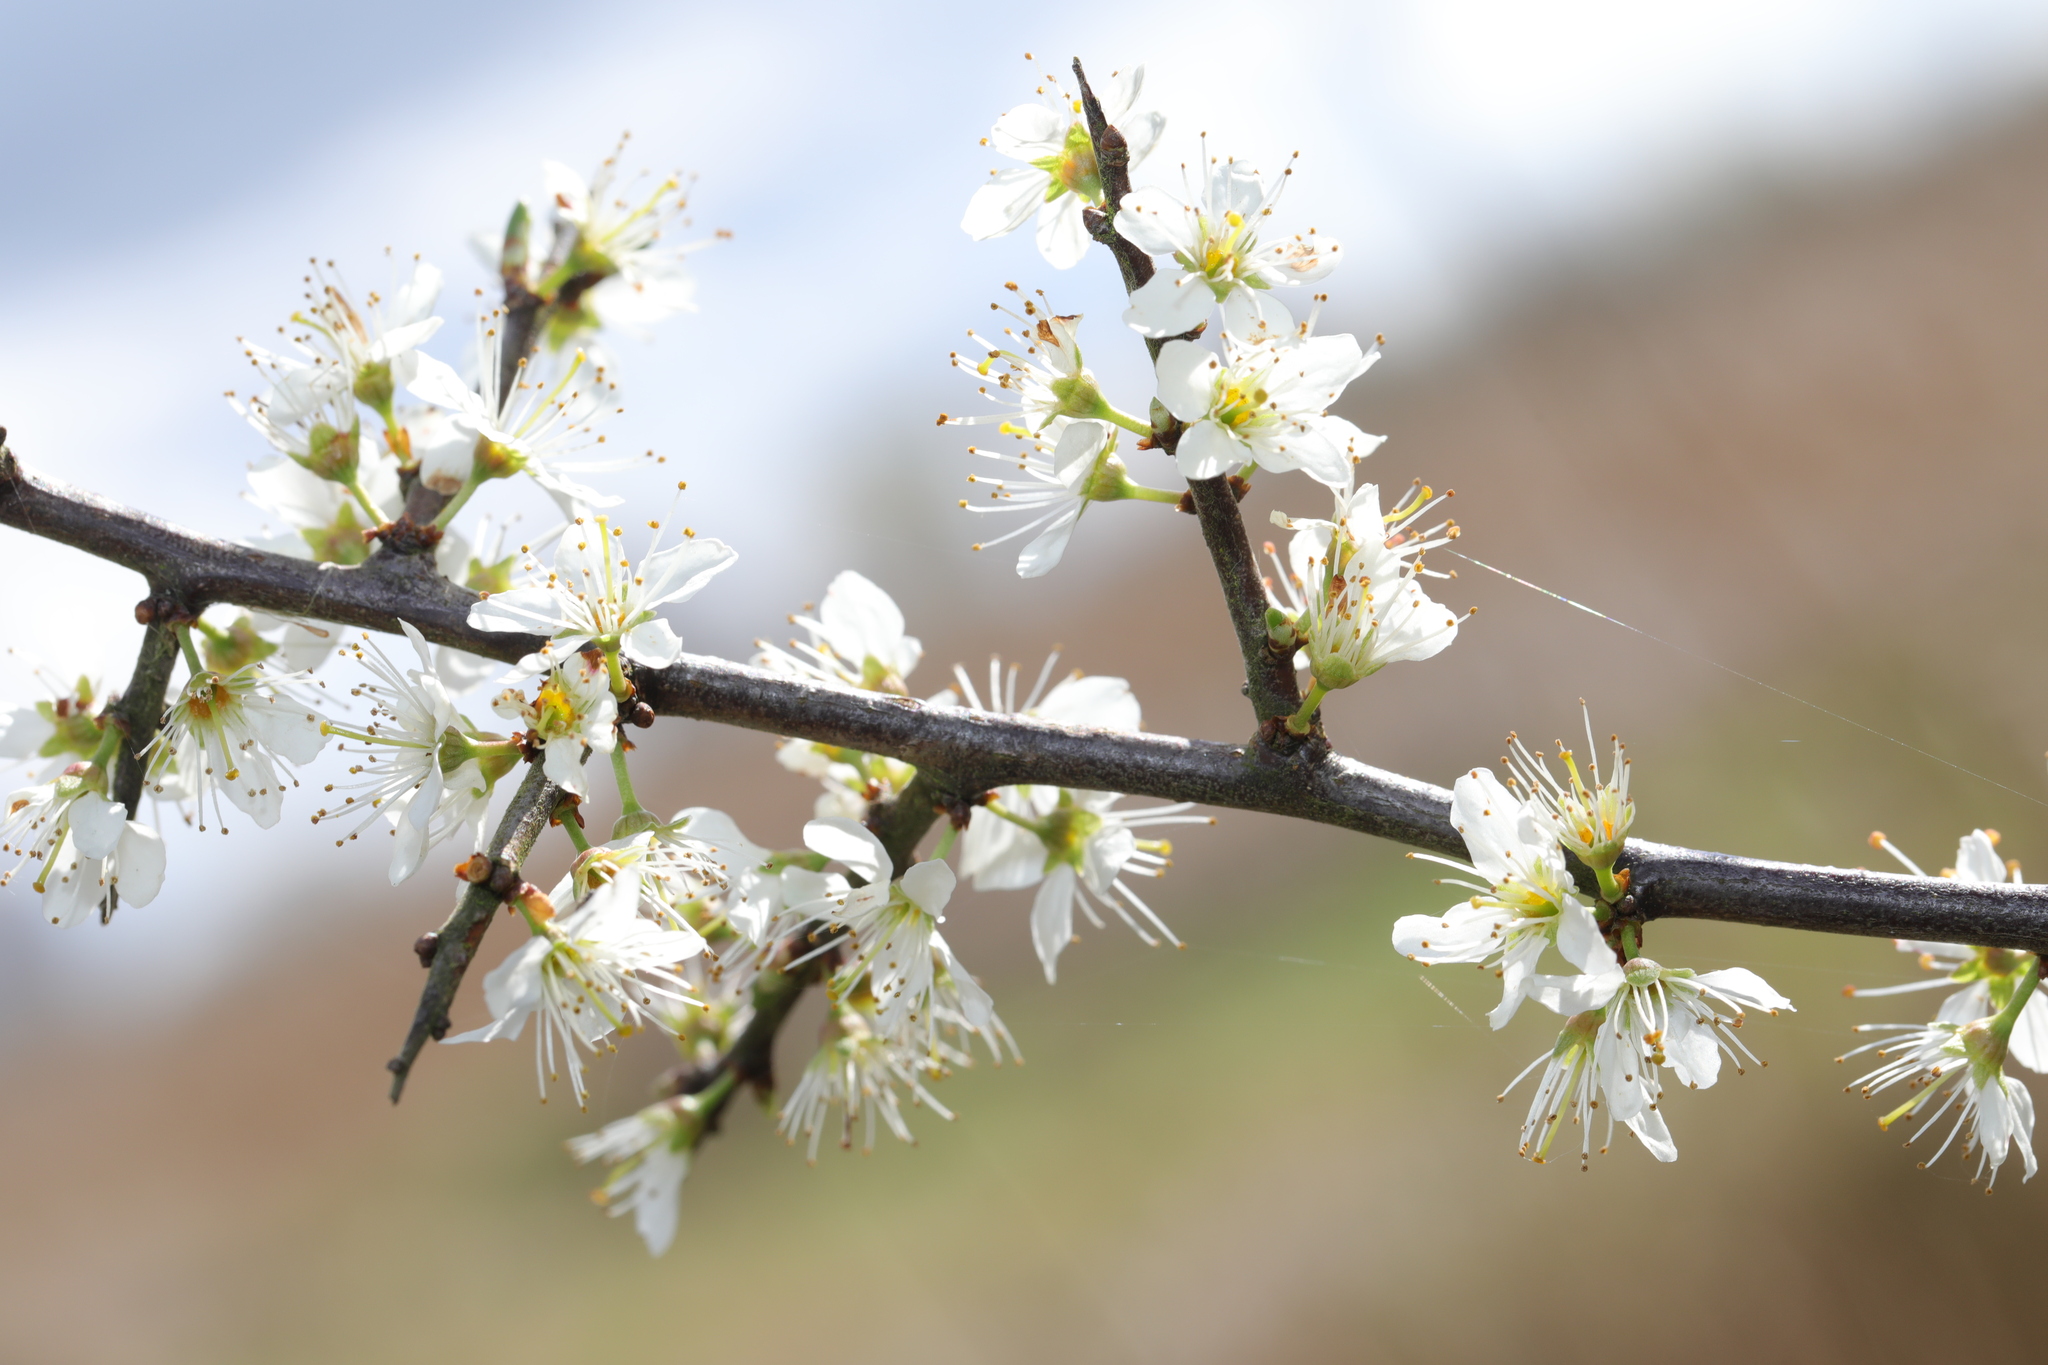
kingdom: Plantae
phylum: Tracheophyta
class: Magnoliopsida
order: Rosales
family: Rosaceae
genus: Prunus
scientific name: Prunus spinosa
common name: Blackthorn
